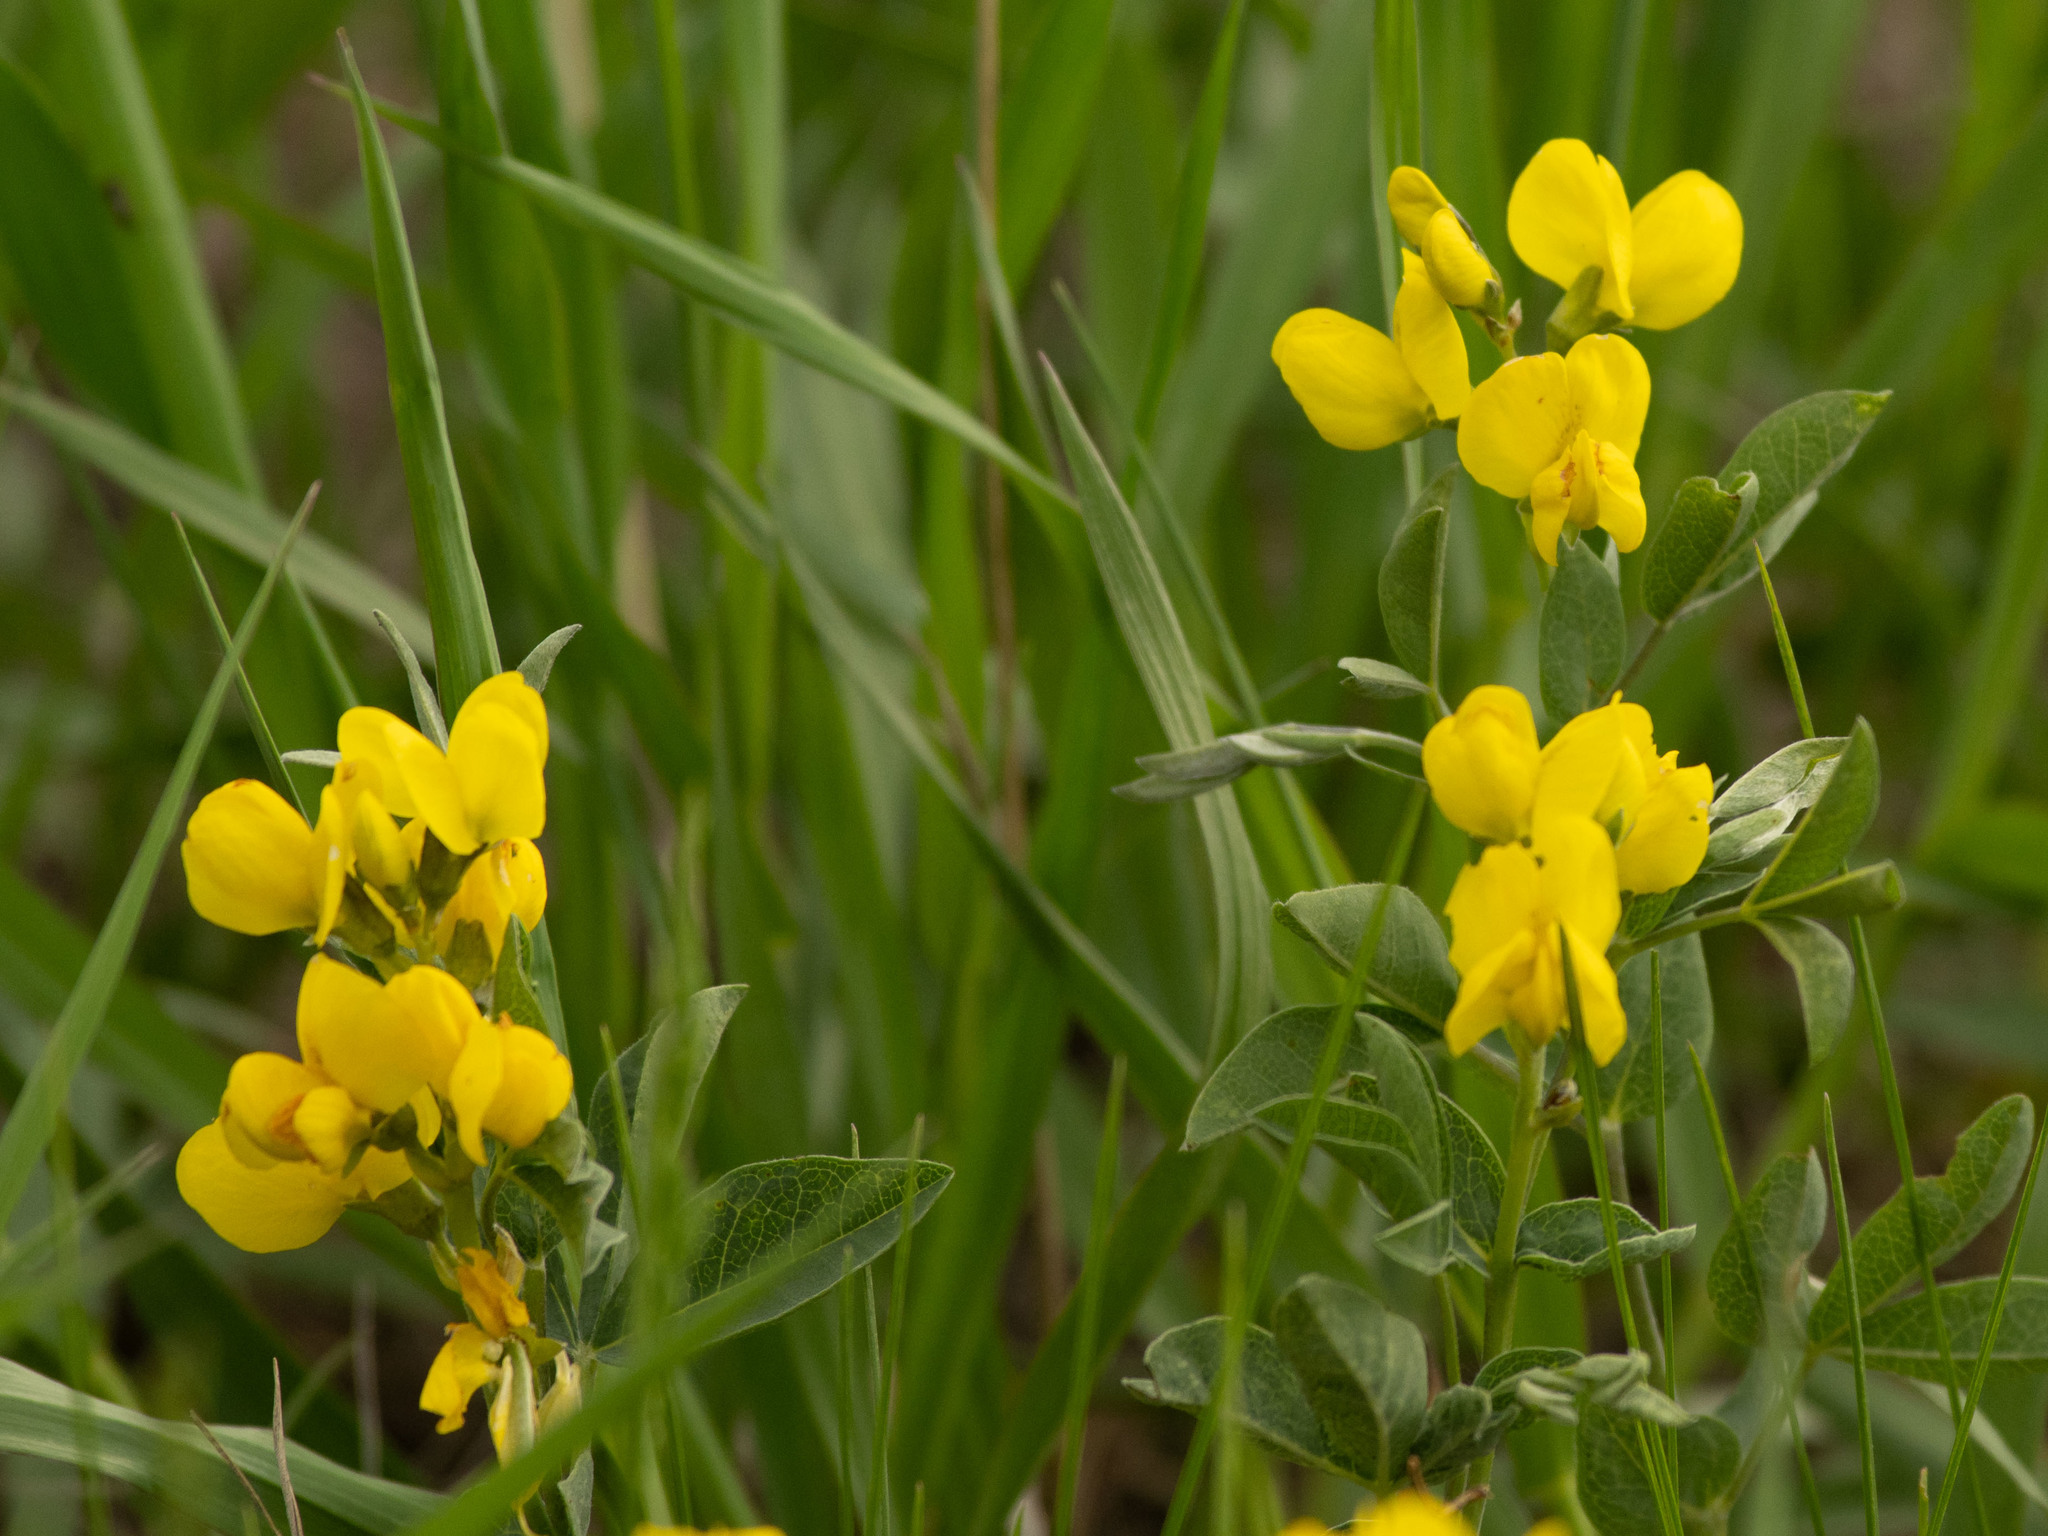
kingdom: Plantae
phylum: Tracheophyta
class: Magnoliopsida
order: Fabales
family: Fabaceae
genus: Thermopsis
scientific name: Thermopsis rhombifolia
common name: Circle-pod-pea
